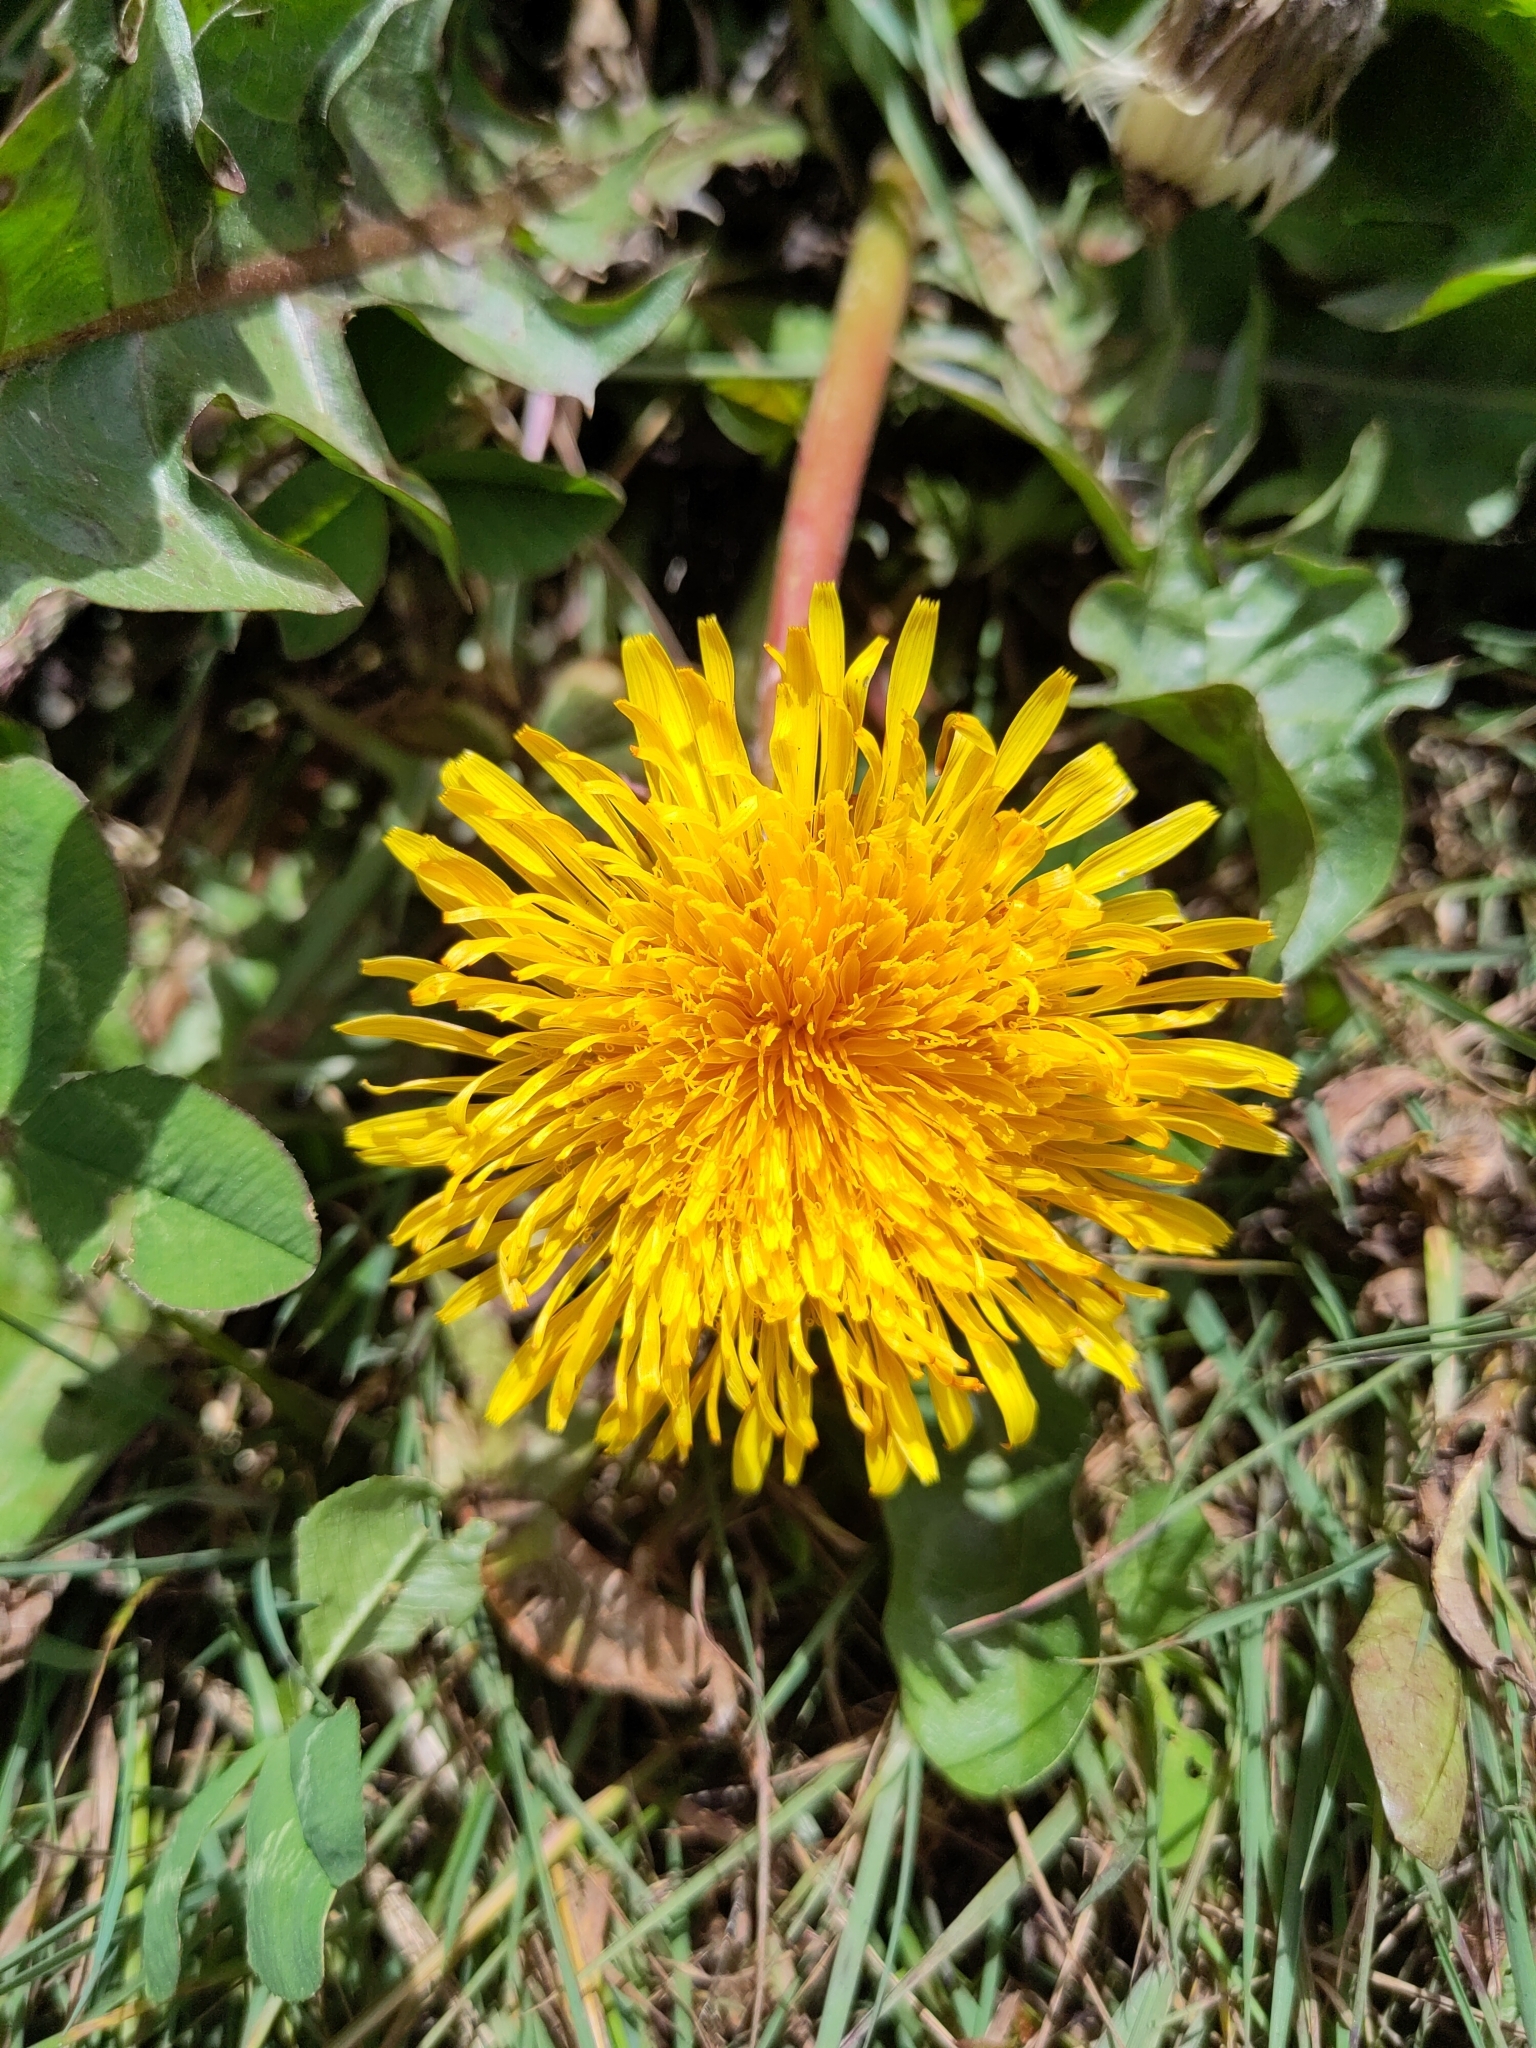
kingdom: Plantae
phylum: Tracheophyta
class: Magnoliopsida
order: Asterales
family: Asteraceae
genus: Taraxacum
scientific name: Taraxacum officinale
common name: Common dandelion
